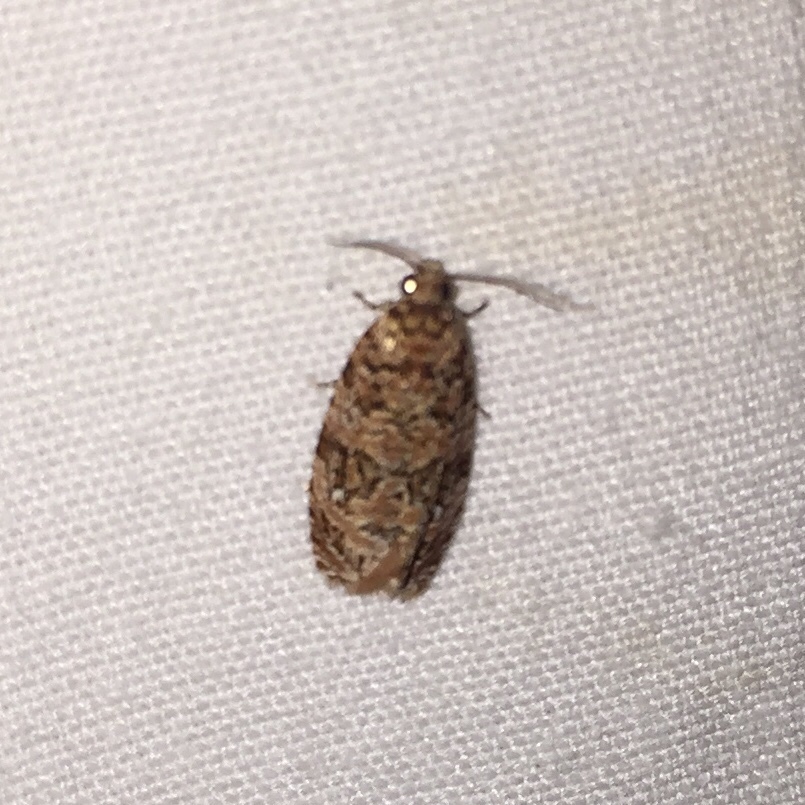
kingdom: Animalia
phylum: Arthropoda
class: Insecta
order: Lepidoptera
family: Tortricidae
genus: Phaecasiophora
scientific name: Phaecasiophora niveiguttana
